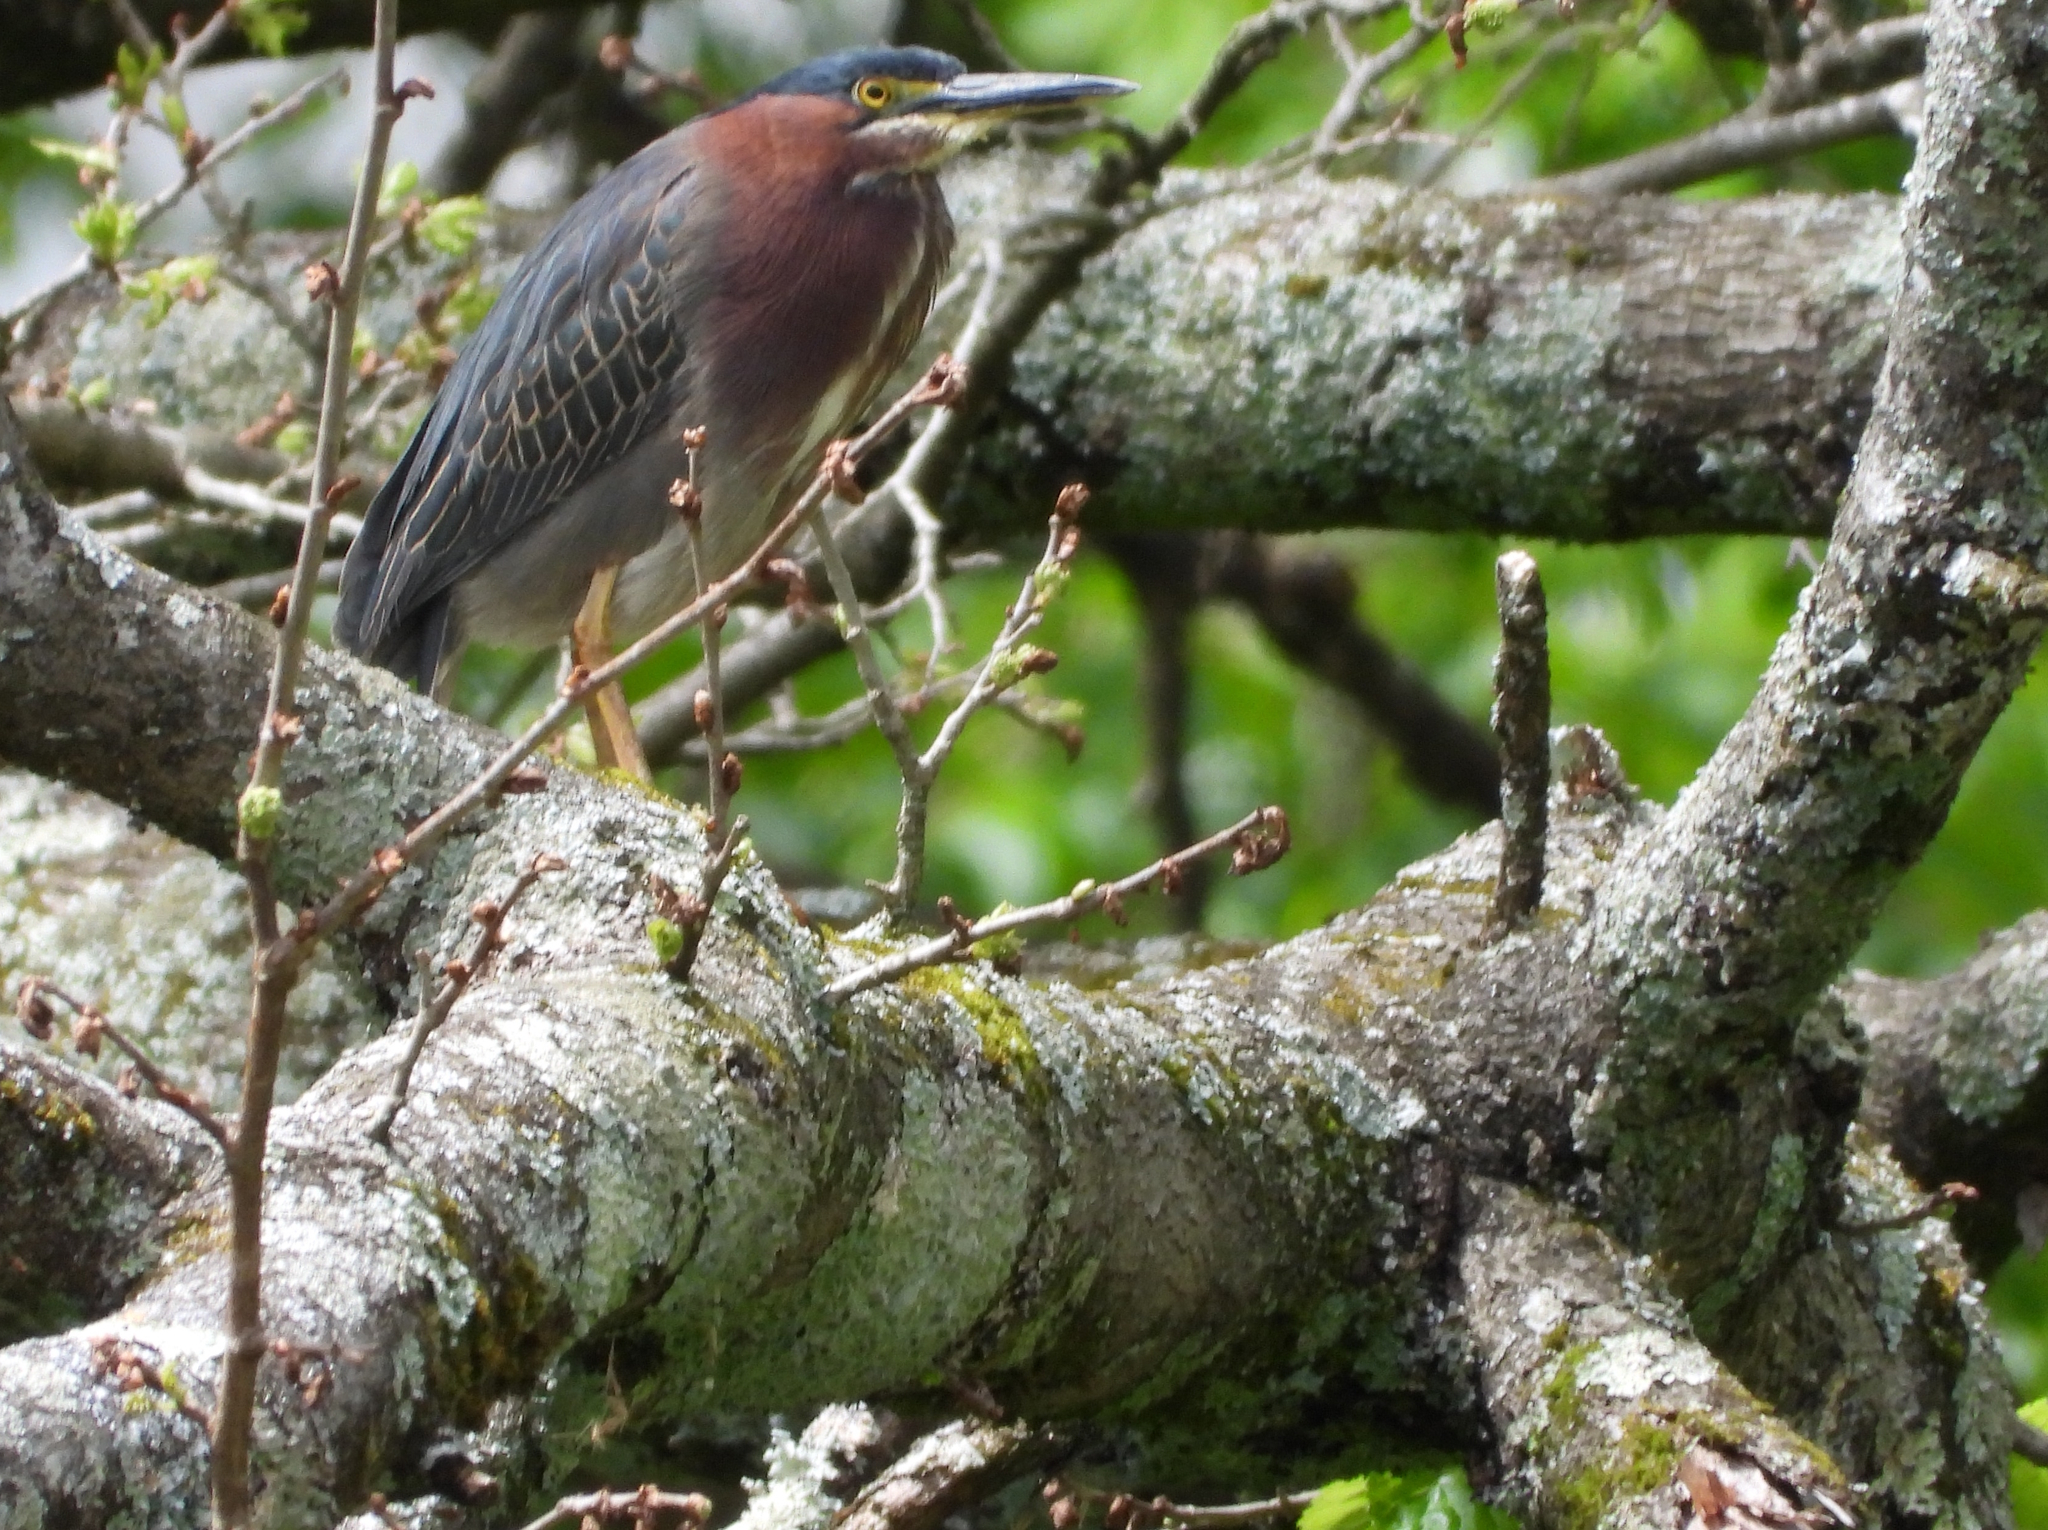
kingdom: Animalia
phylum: Chordata
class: Aves
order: Pelecaniformes
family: Ardeidae
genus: Butorides
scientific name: Butorides virescens
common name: Green heron
